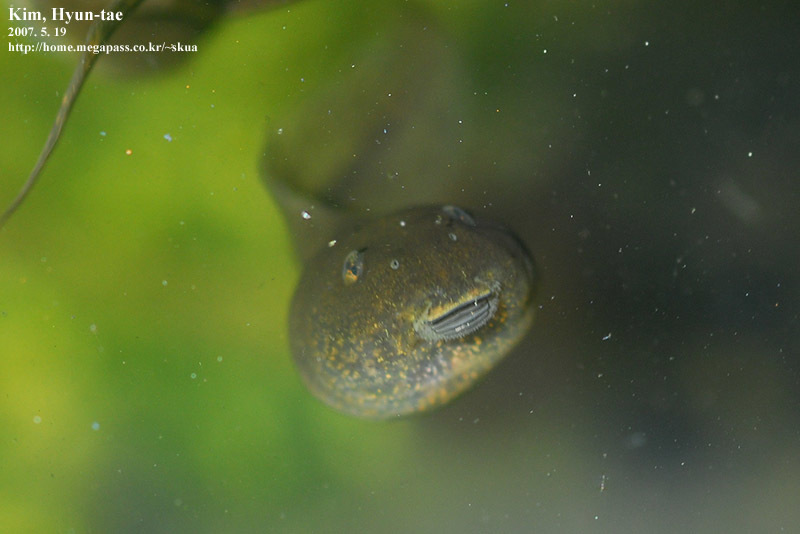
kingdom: Animalia
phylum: Chordata
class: Amphibia
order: Anura
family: Ranidae
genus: Rana
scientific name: Rana uenoi
